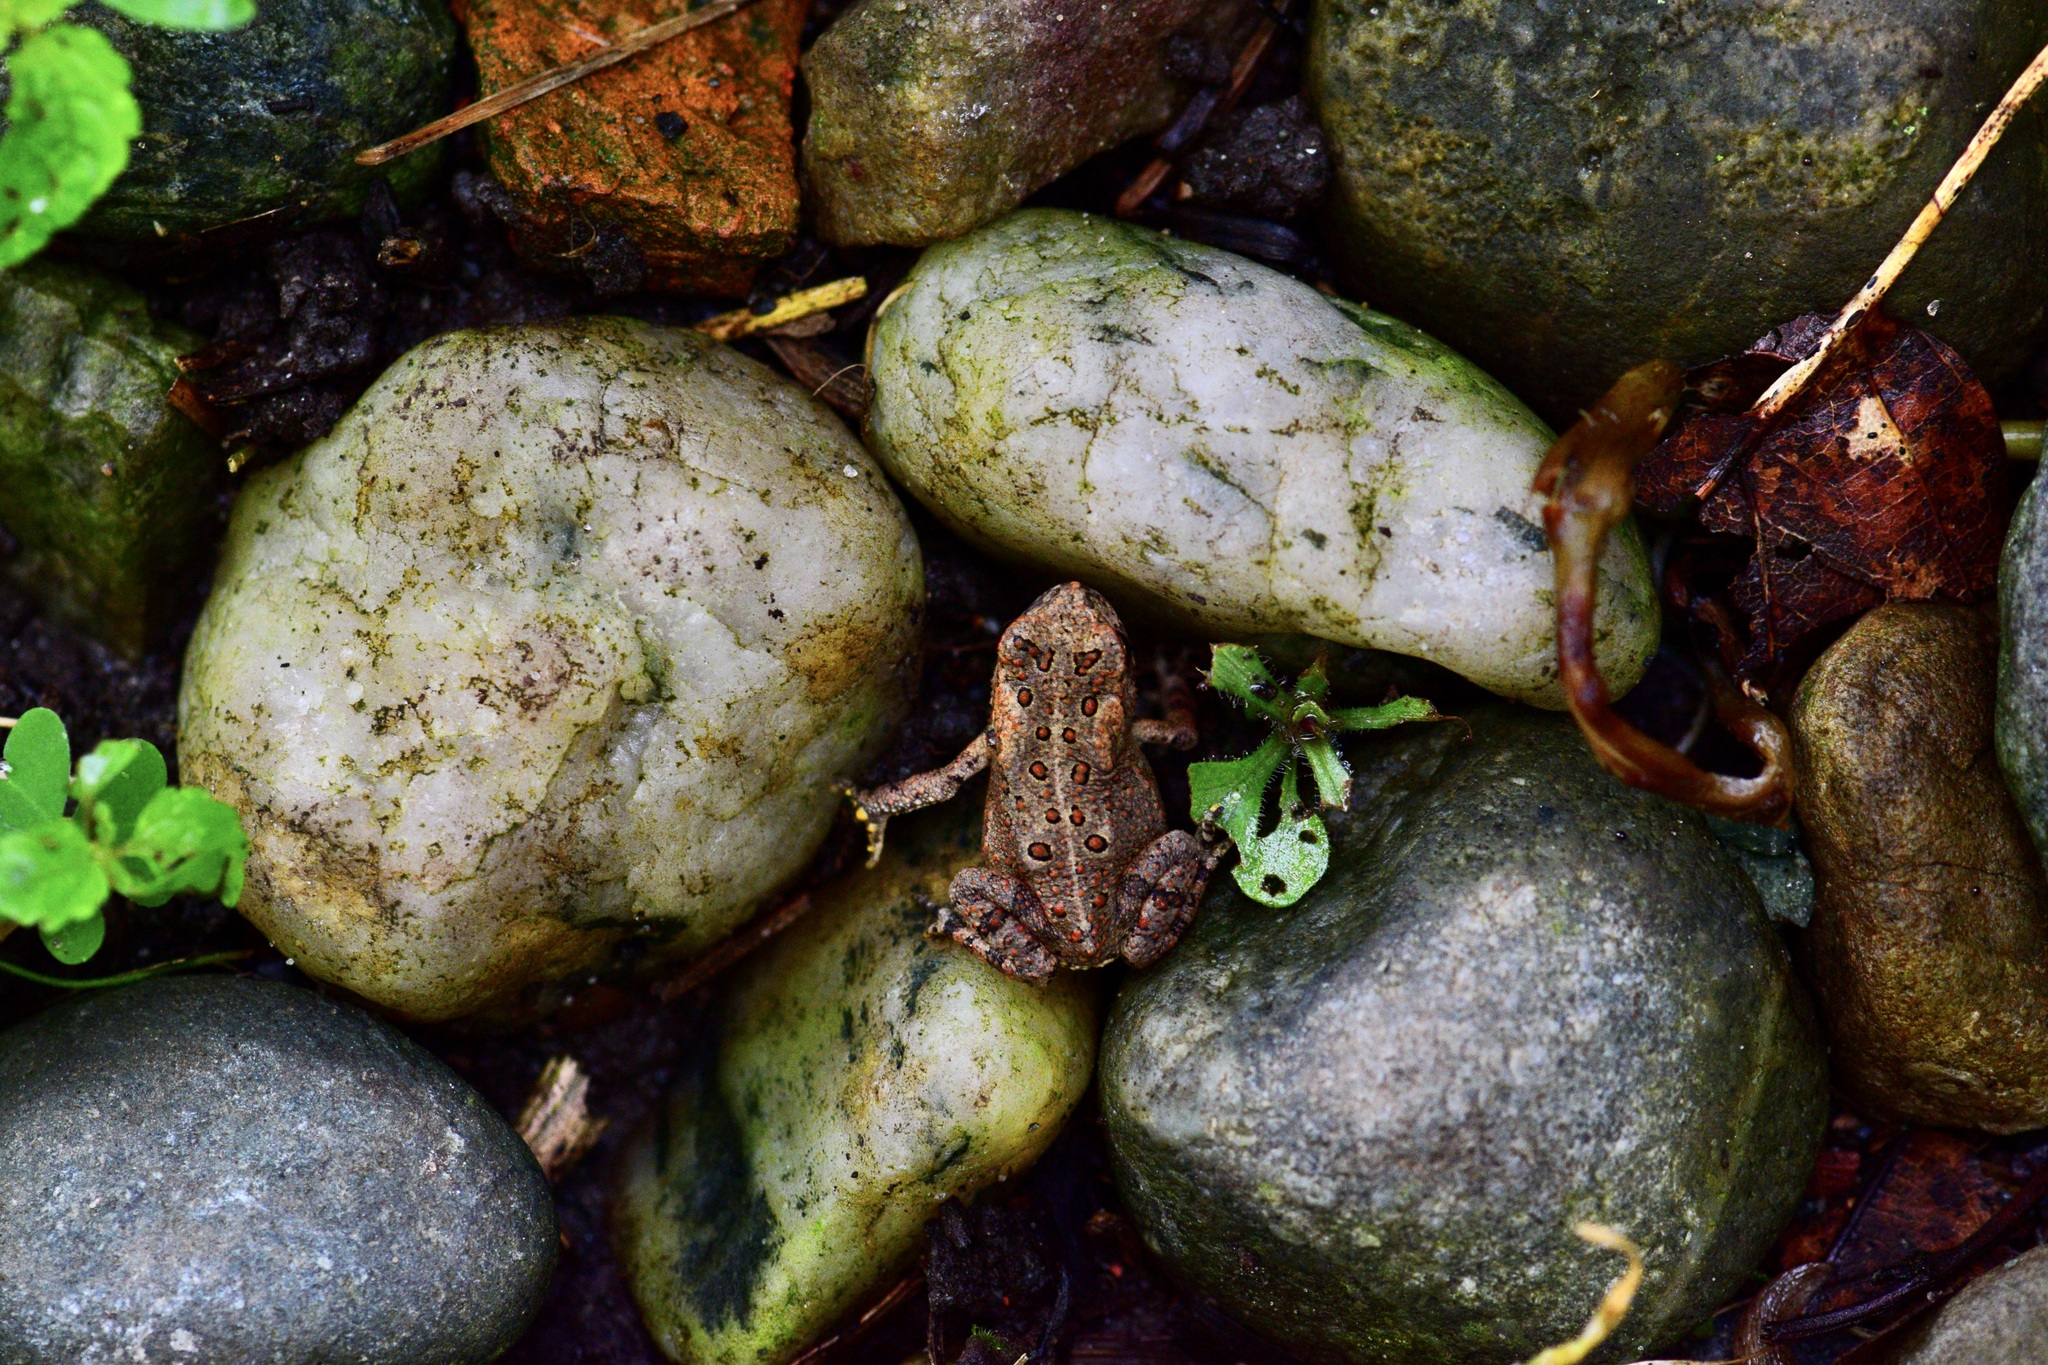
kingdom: Animalia
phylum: Chordata
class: Amphibia
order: Anura
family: Bufonidae
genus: Anaxyrus
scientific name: Anaxyrus americanus
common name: American toad
